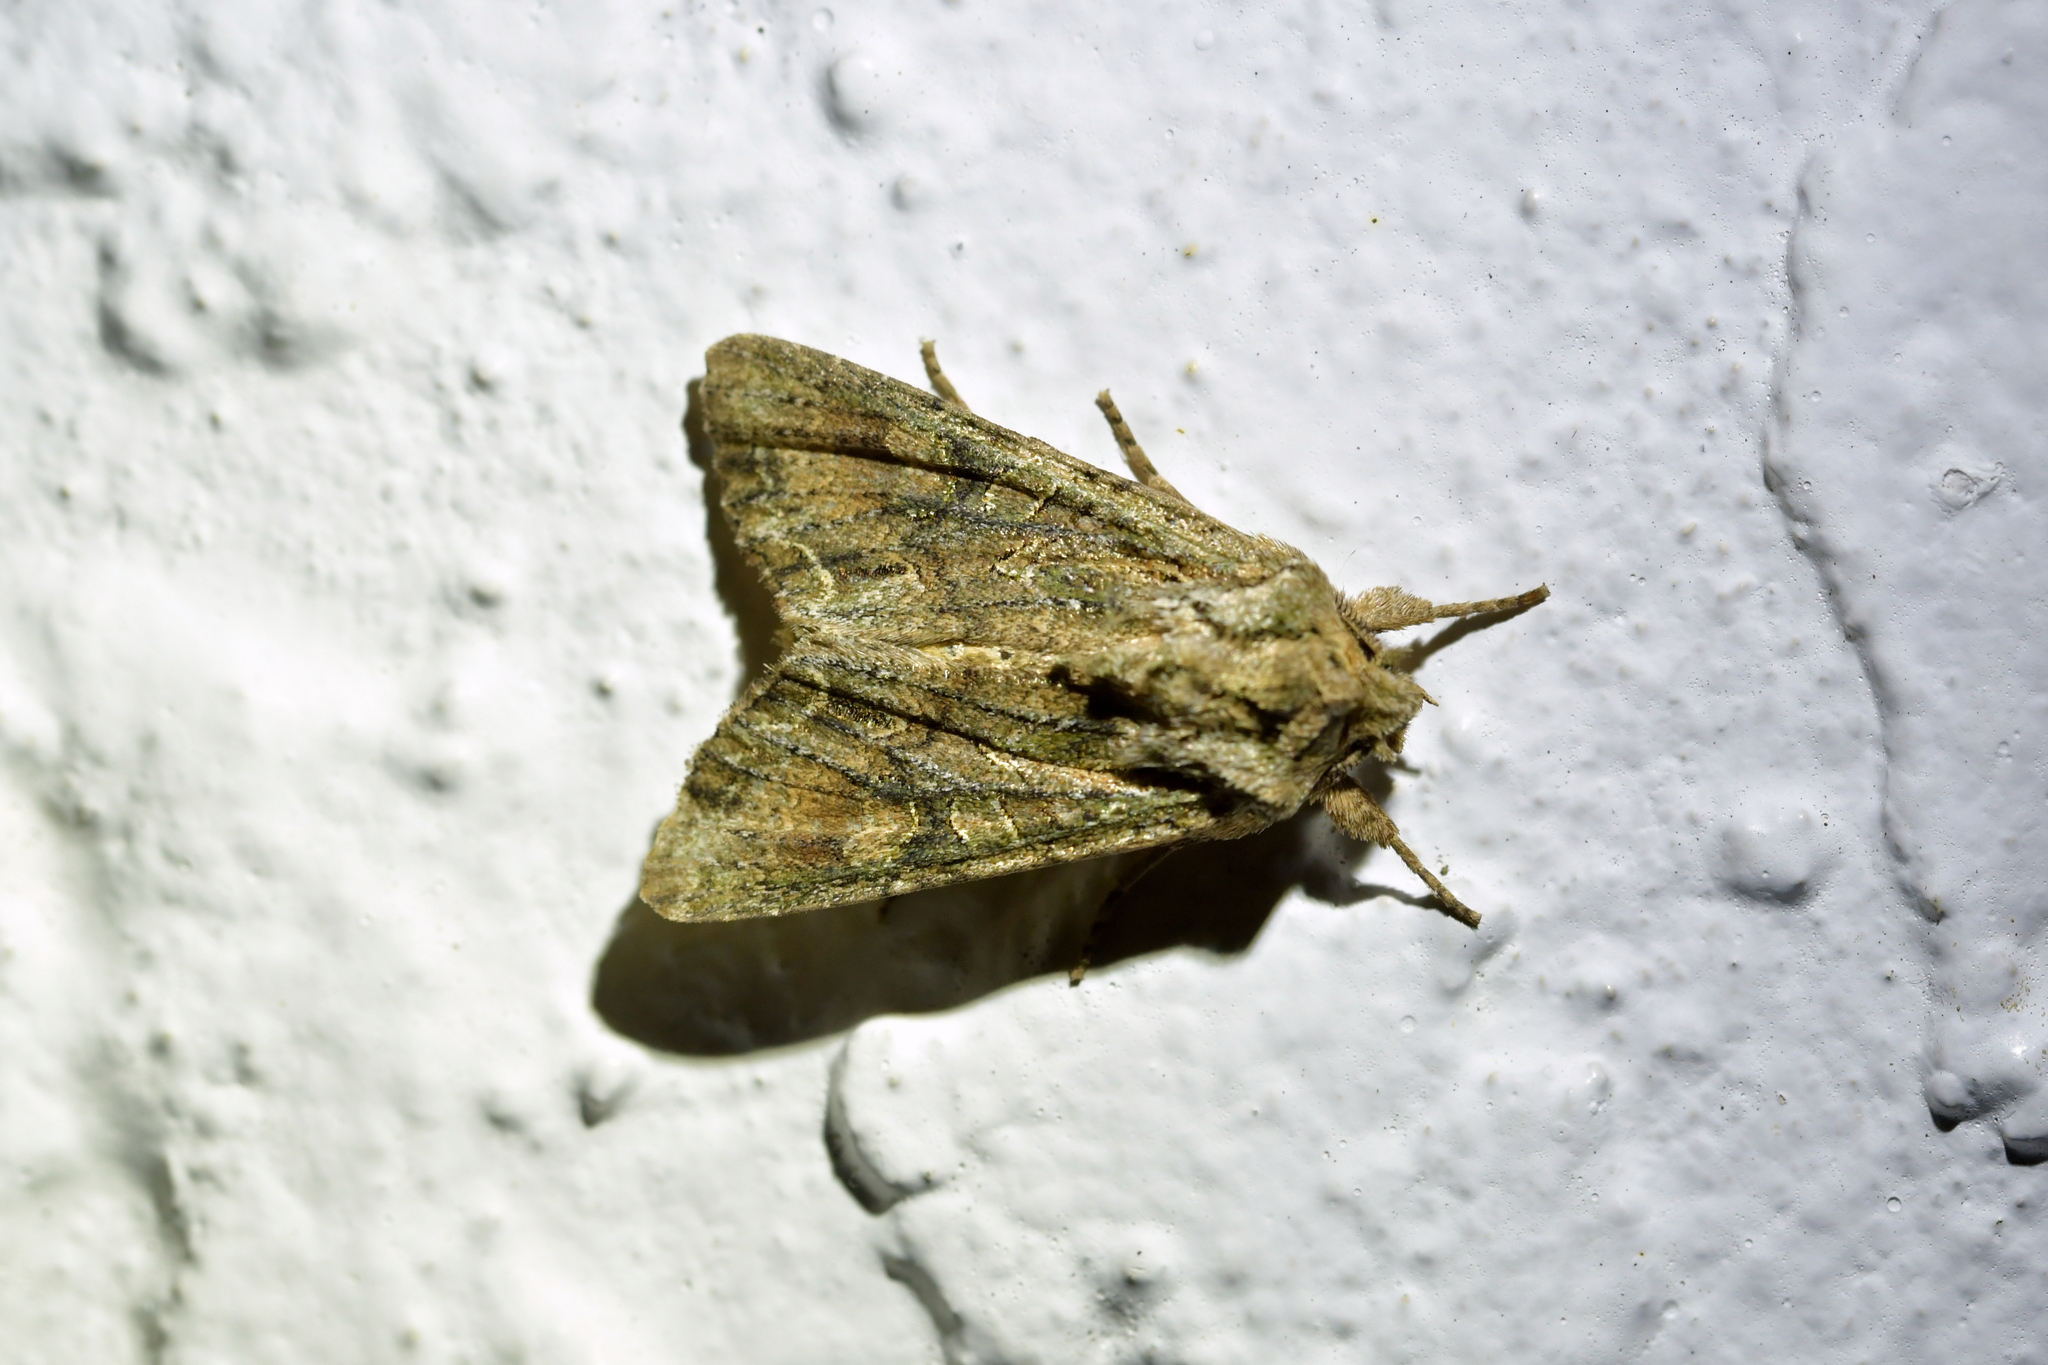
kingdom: Animalia
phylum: Arthropoda
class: Insecta
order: Lepidoptera
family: Noctuidae
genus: Ichneutica
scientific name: Ichneutica mutans
